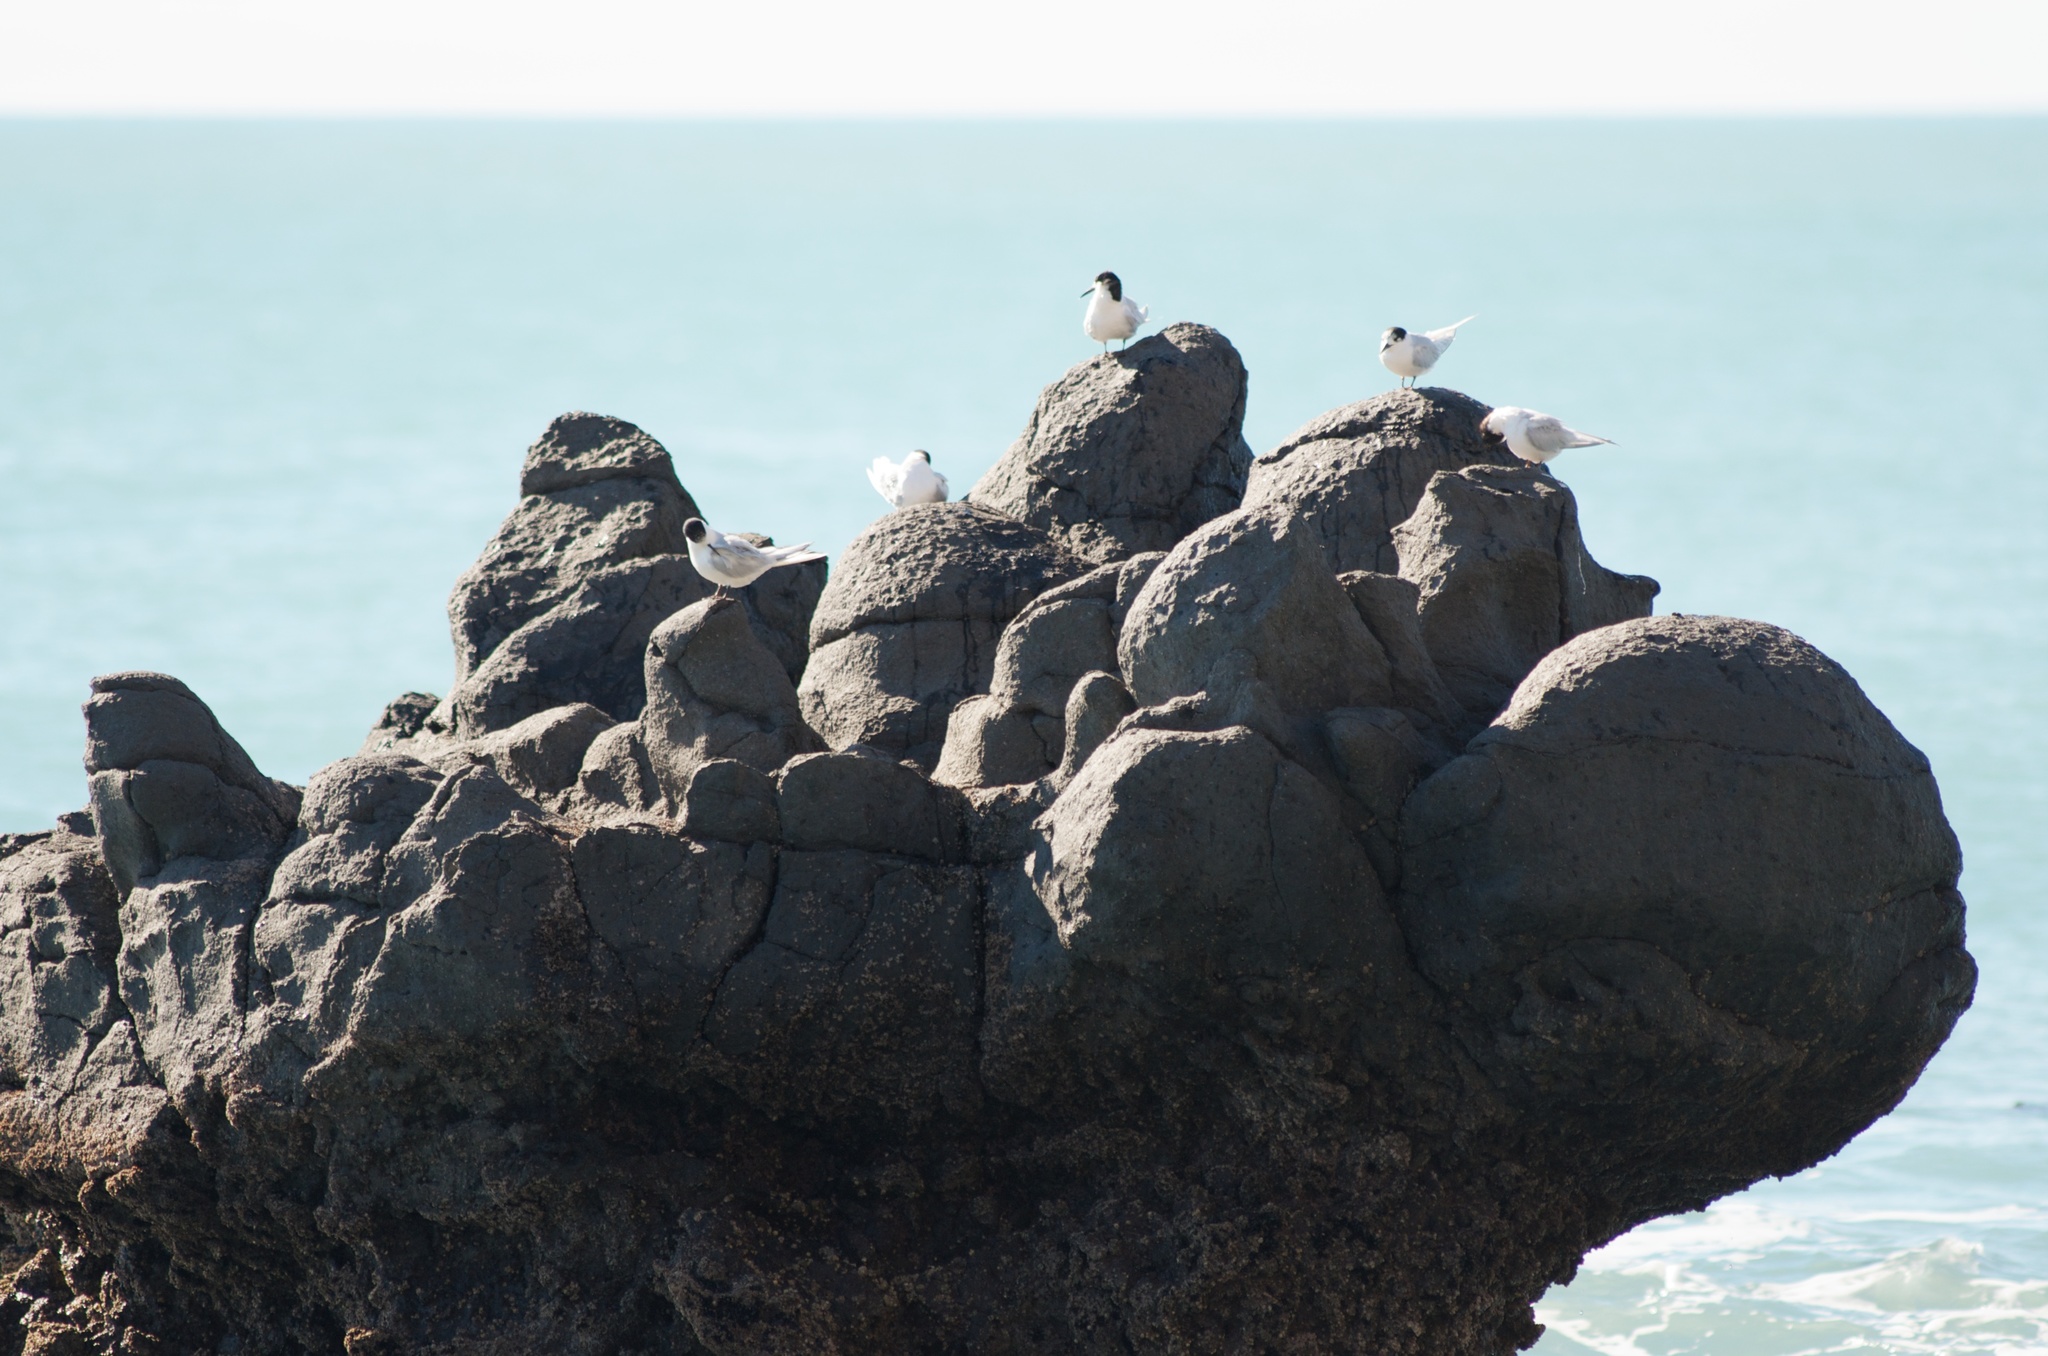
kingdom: Animalia
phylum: Chordata
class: Aves
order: Charadriiformes
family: Laridae
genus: Sterna
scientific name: Sterna striata
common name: White-fronted tern
